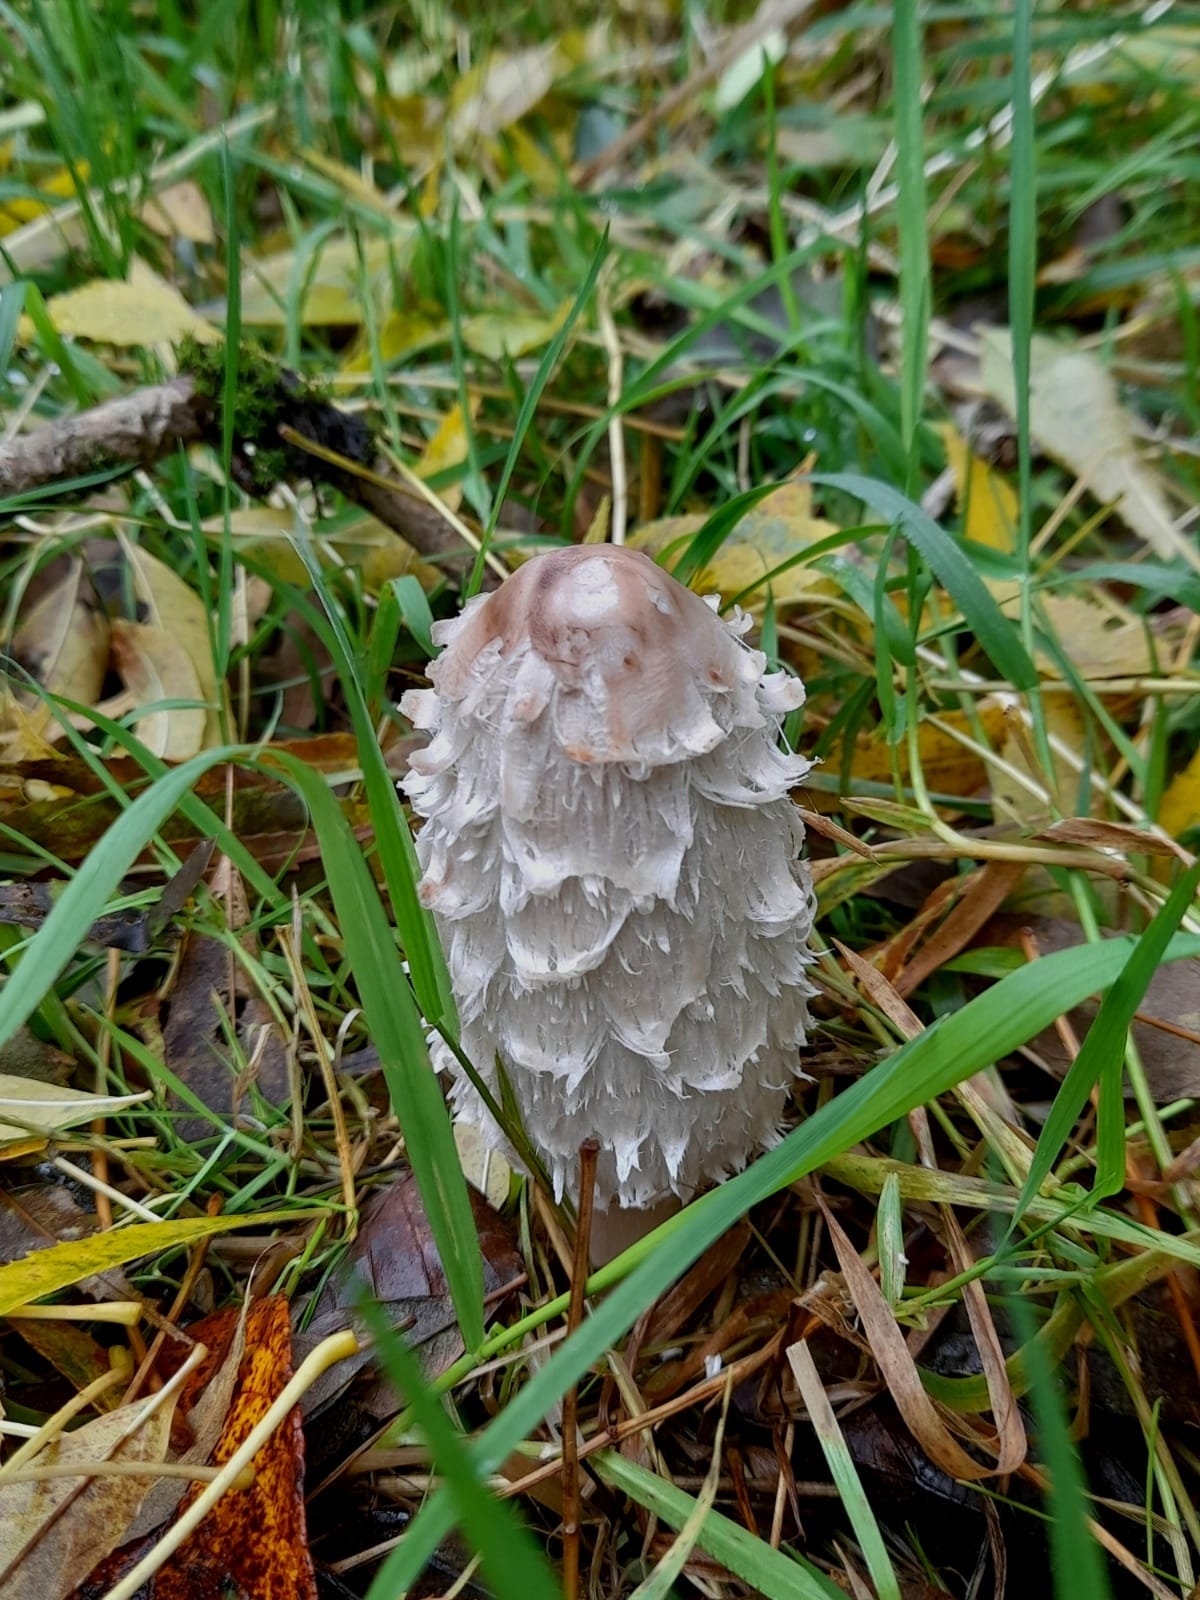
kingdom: Fungi
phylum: Basidiomycota
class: Agaricomycetes
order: Agaricales
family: Agaricaceae
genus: Coprinus
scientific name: Coprinus comatus
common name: Lawyer's wig
